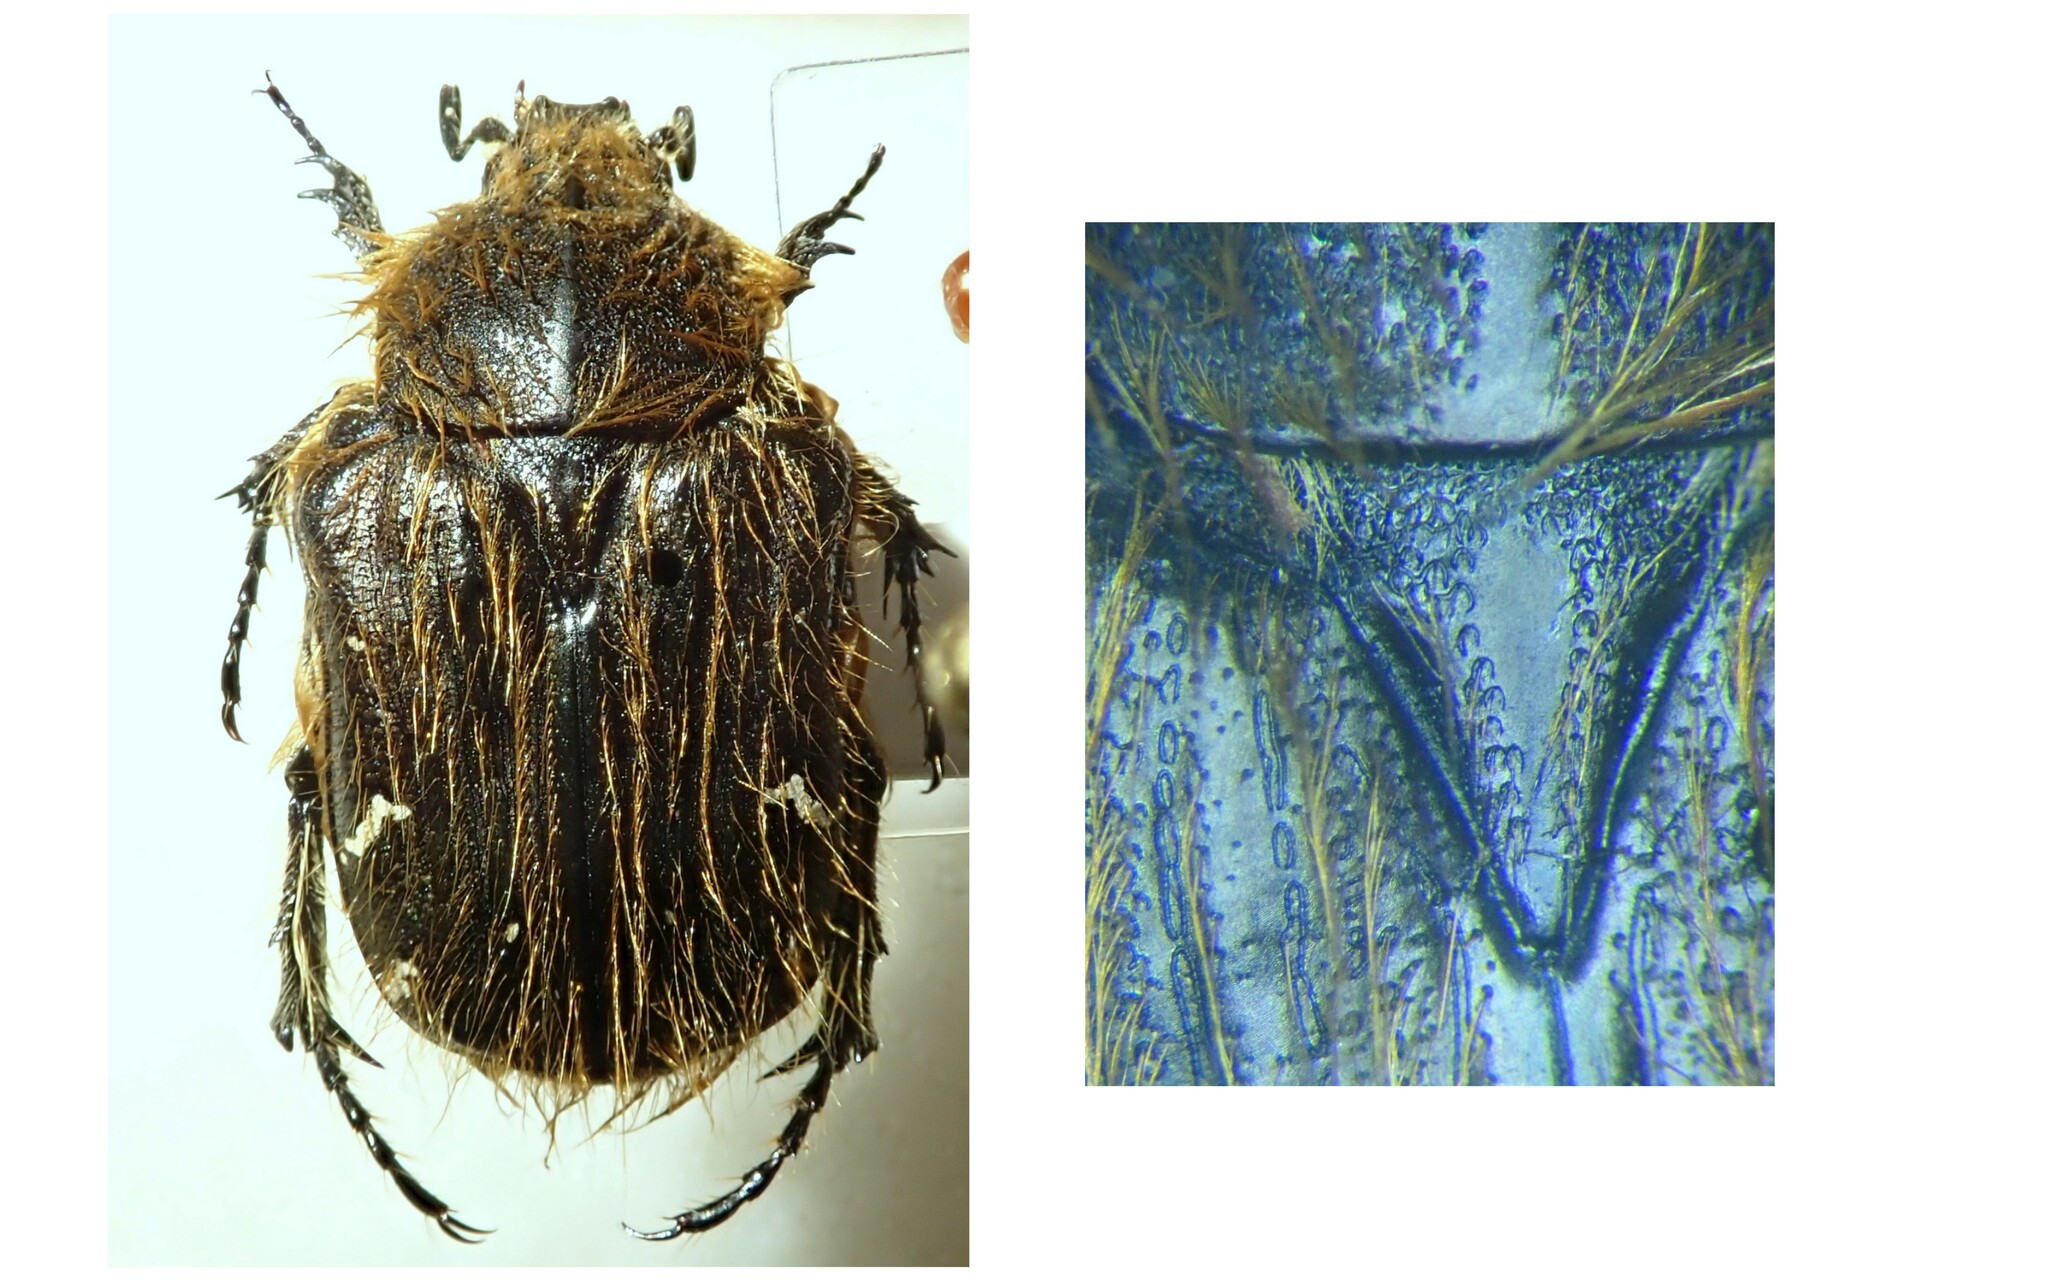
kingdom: Animalia
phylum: Arthropoda
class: Insecta
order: Coleoptera
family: Scarabaeidae
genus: Tropinota
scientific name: Tropinota hirta
